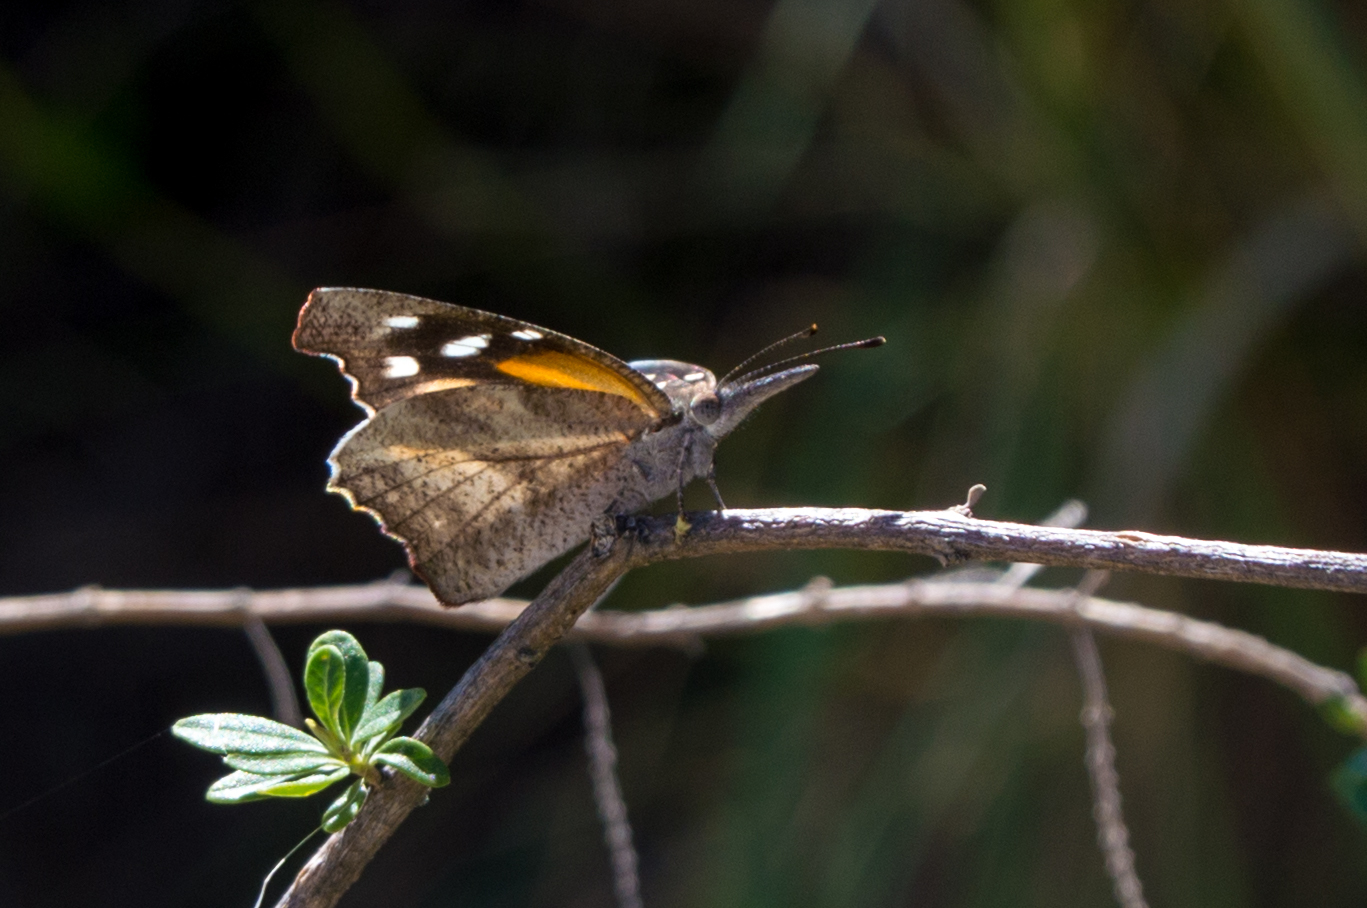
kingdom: Animalia
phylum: Arthropoda
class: Insecta
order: Lepidoptera
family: Nymphalidae
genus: Libytheana
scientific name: Libytheana carinenta
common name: American snout
